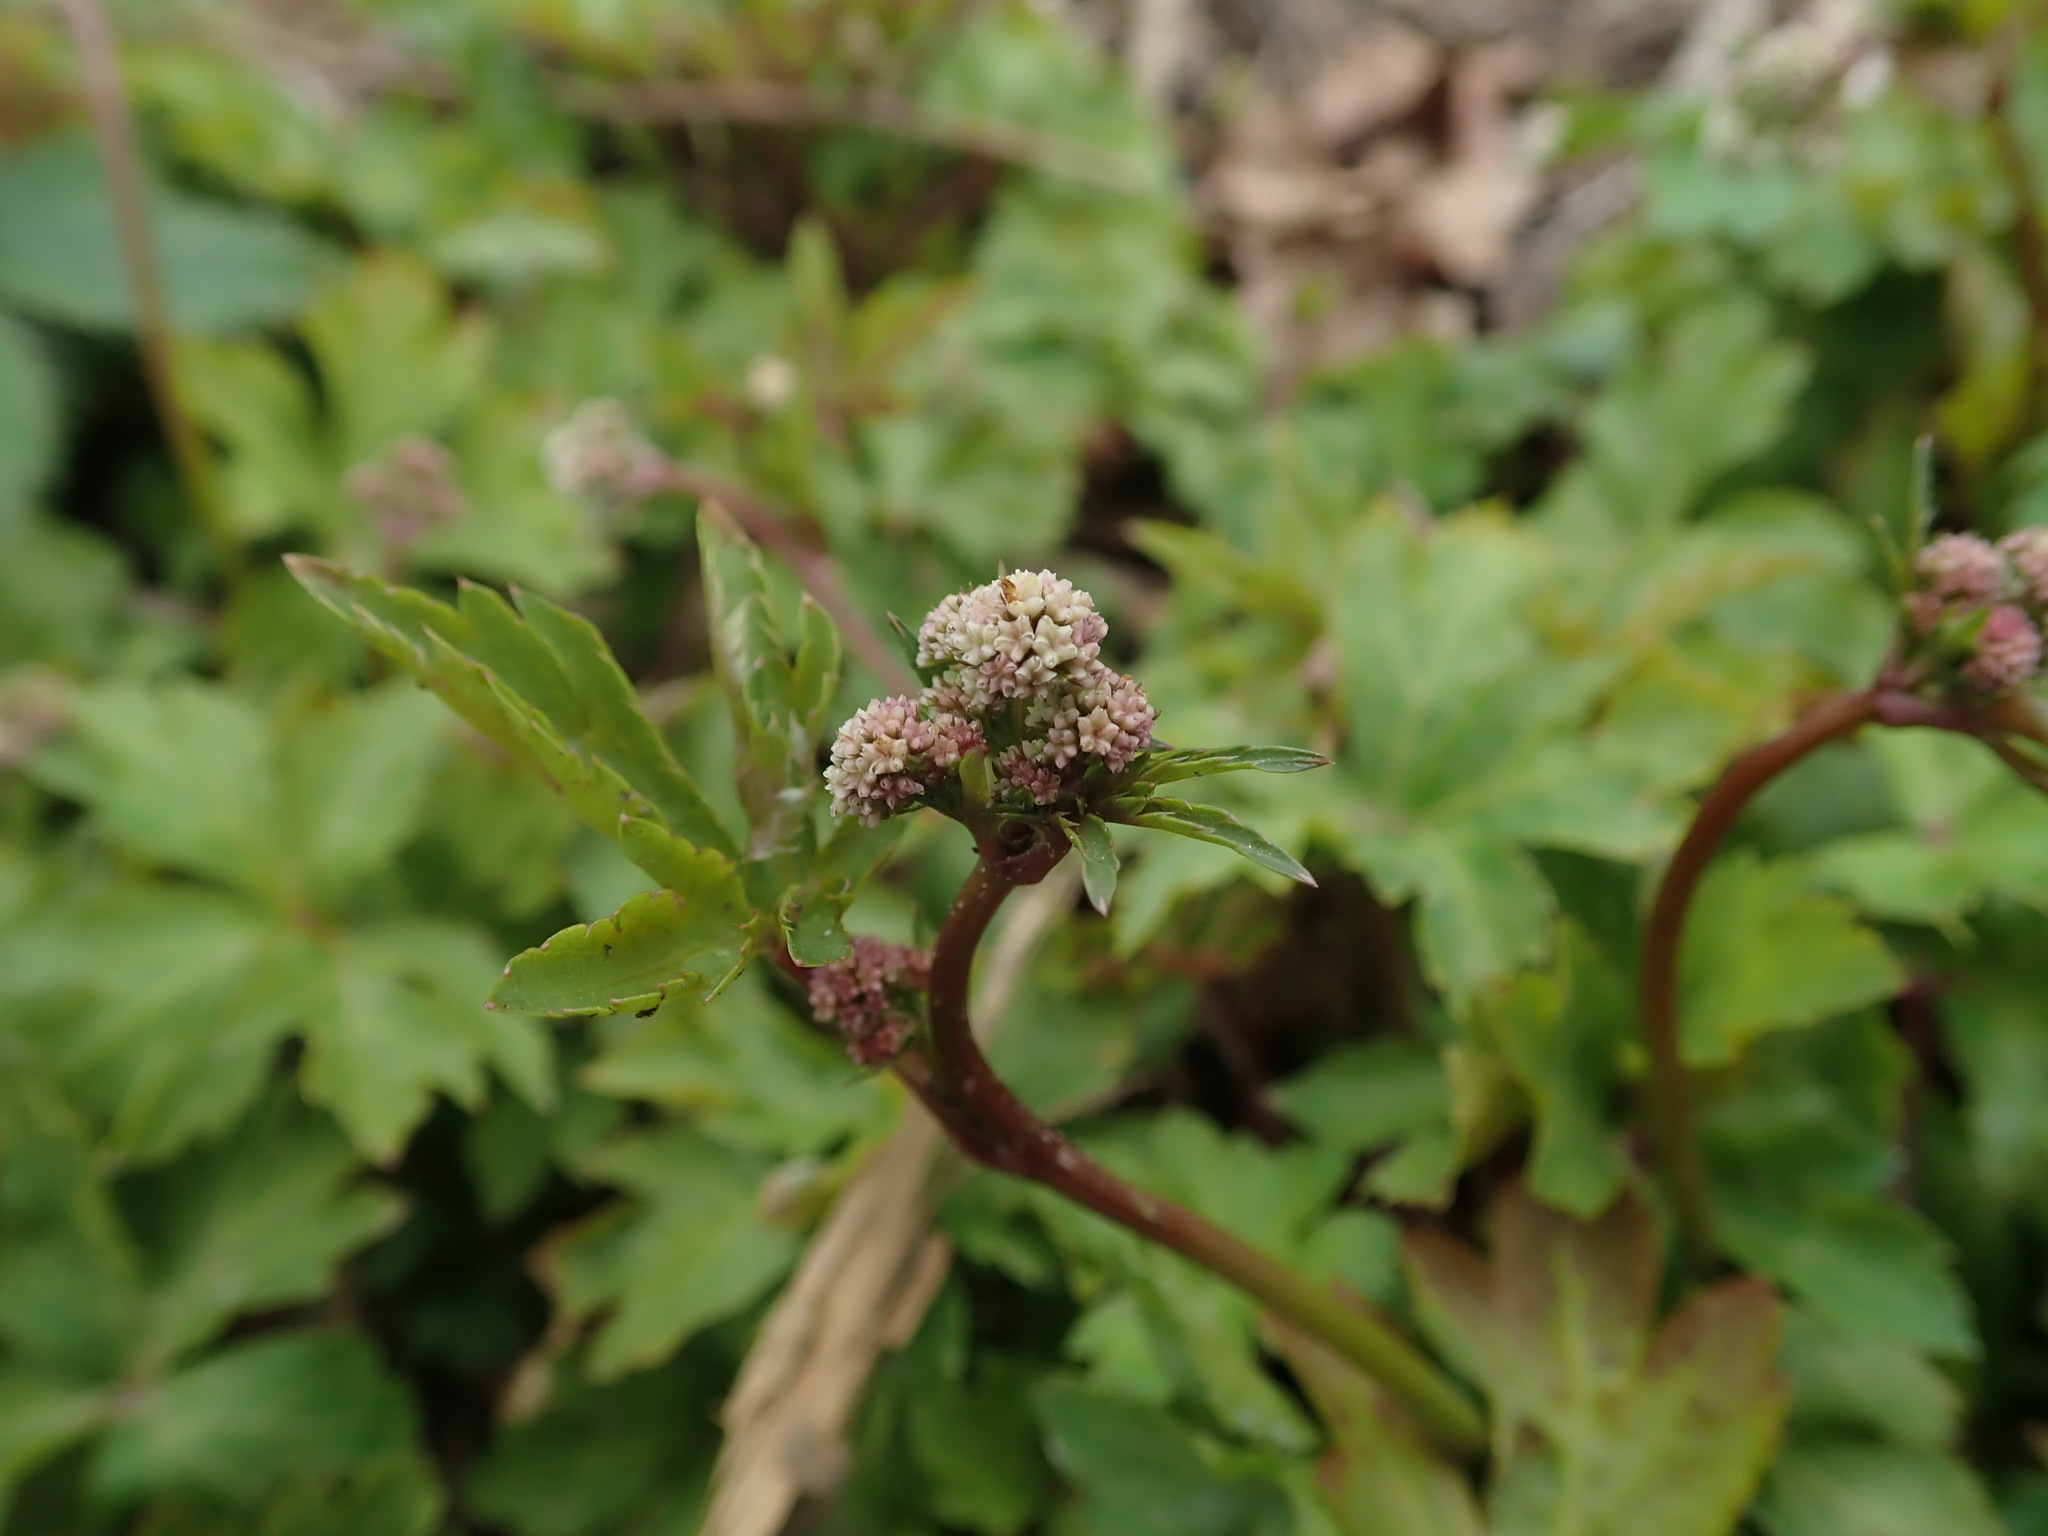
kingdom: Plantae
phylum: Tracheophyta
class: Magnoliopsida
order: Apiales
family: Apiaceae
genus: Sanicula
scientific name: Sanicula europaea
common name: Sanicle
